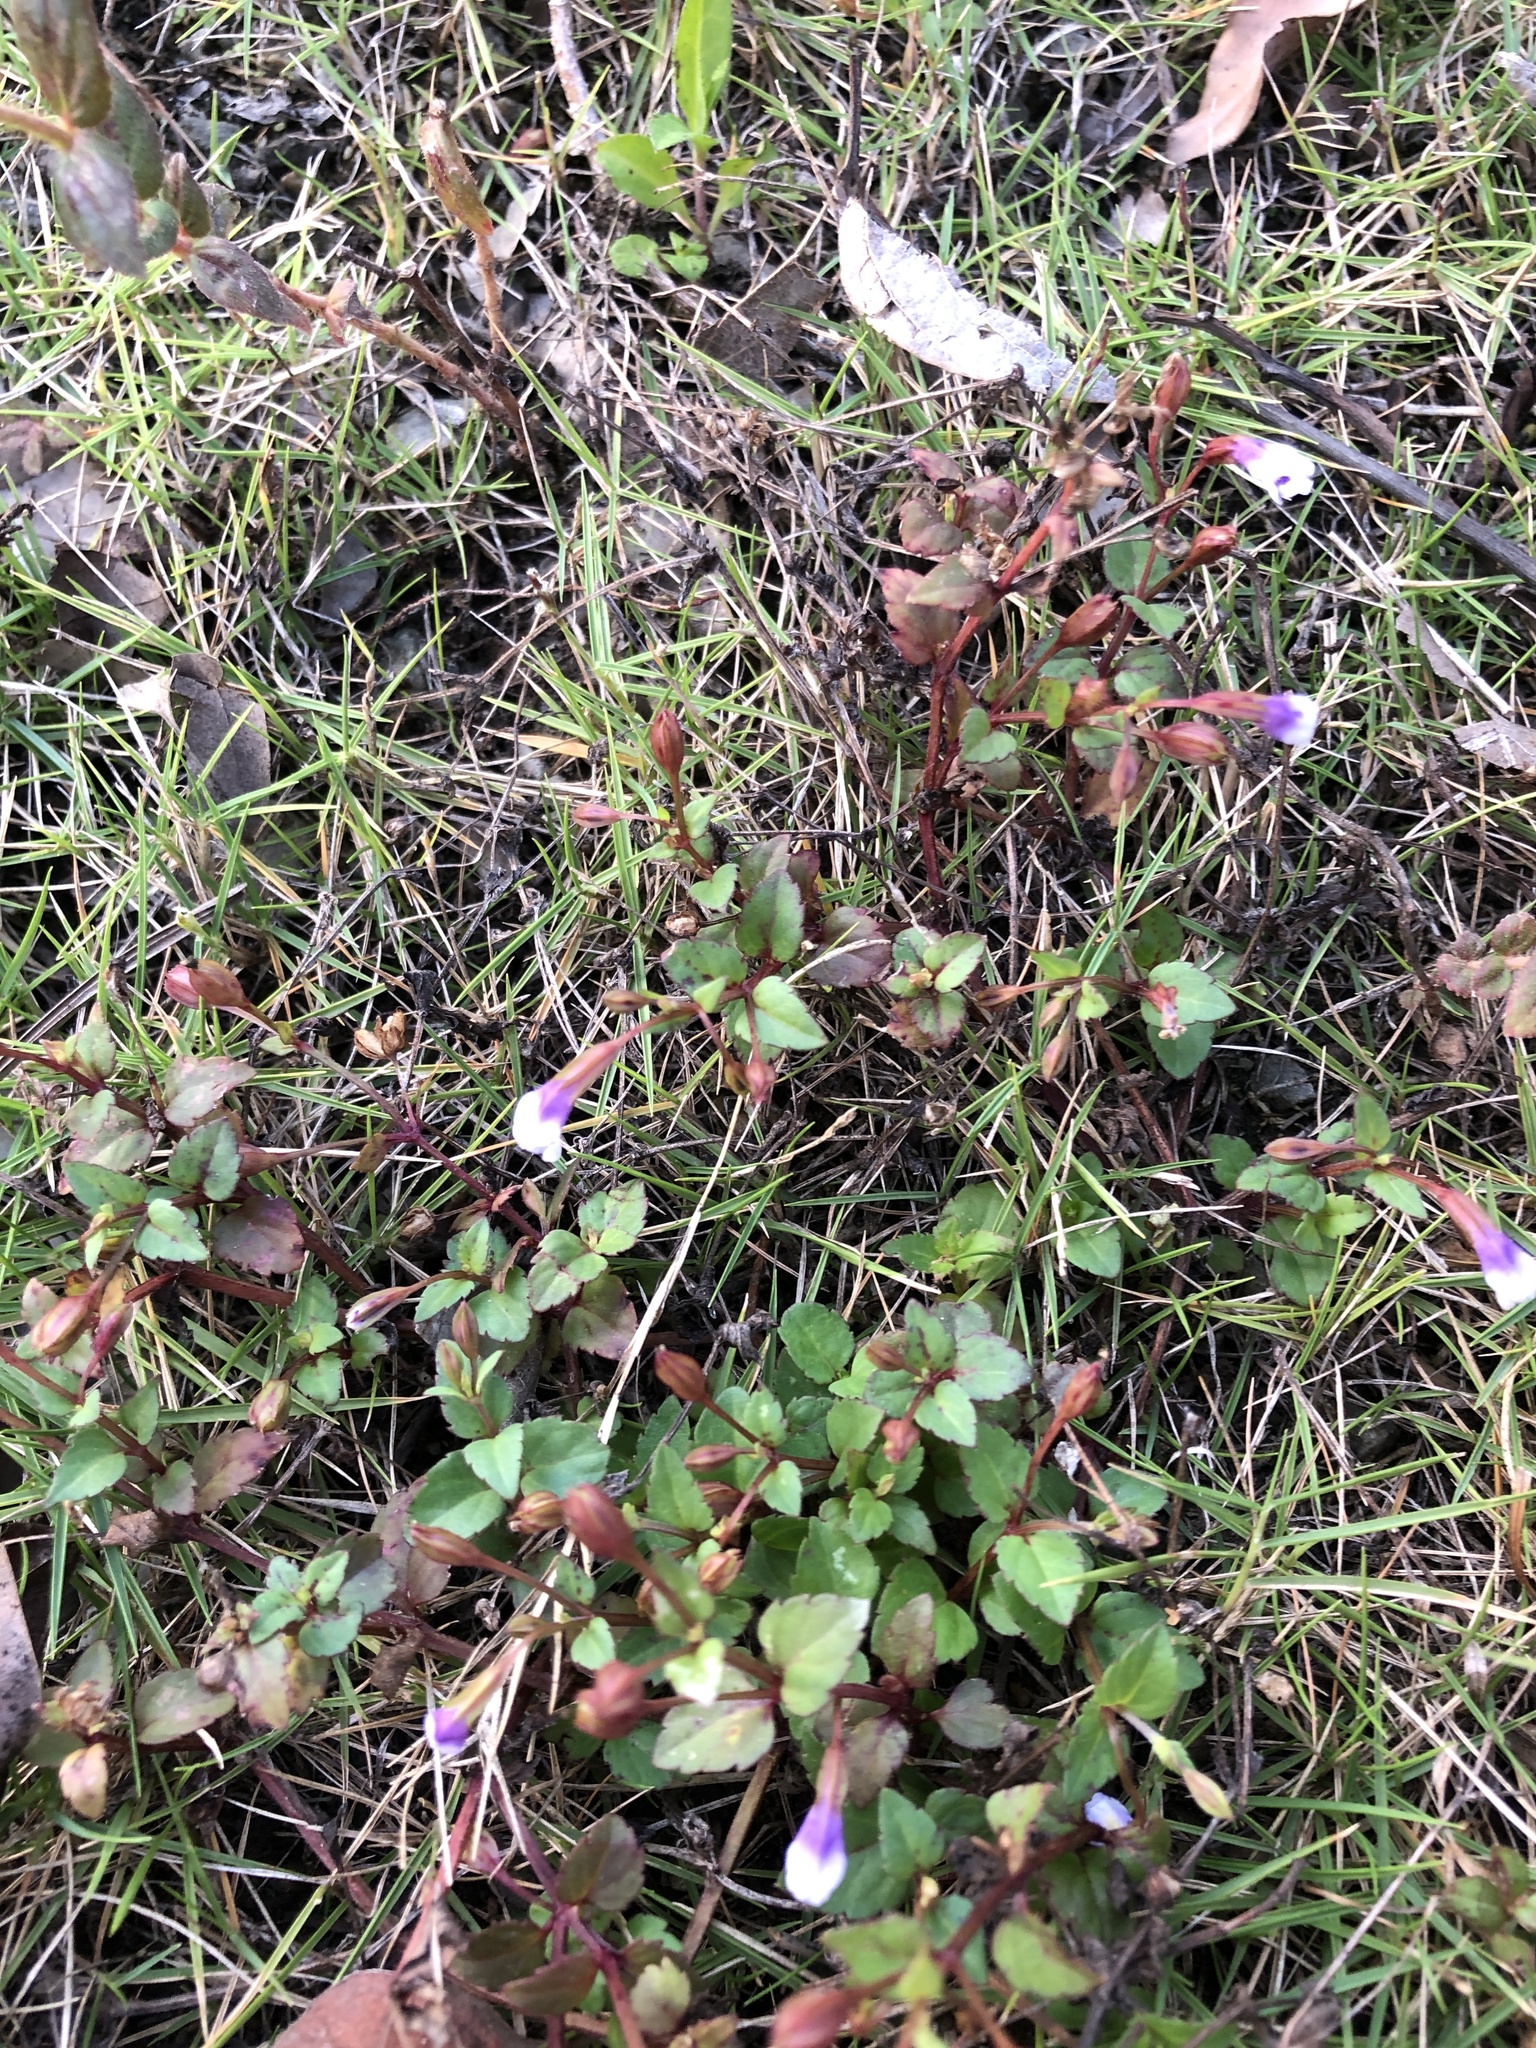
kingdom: Plantae
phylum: Tracheophyta
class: Magnoliopsida
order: Lamiales
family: Linderniaceae
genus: Torenia
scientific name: Torenia crustacea
